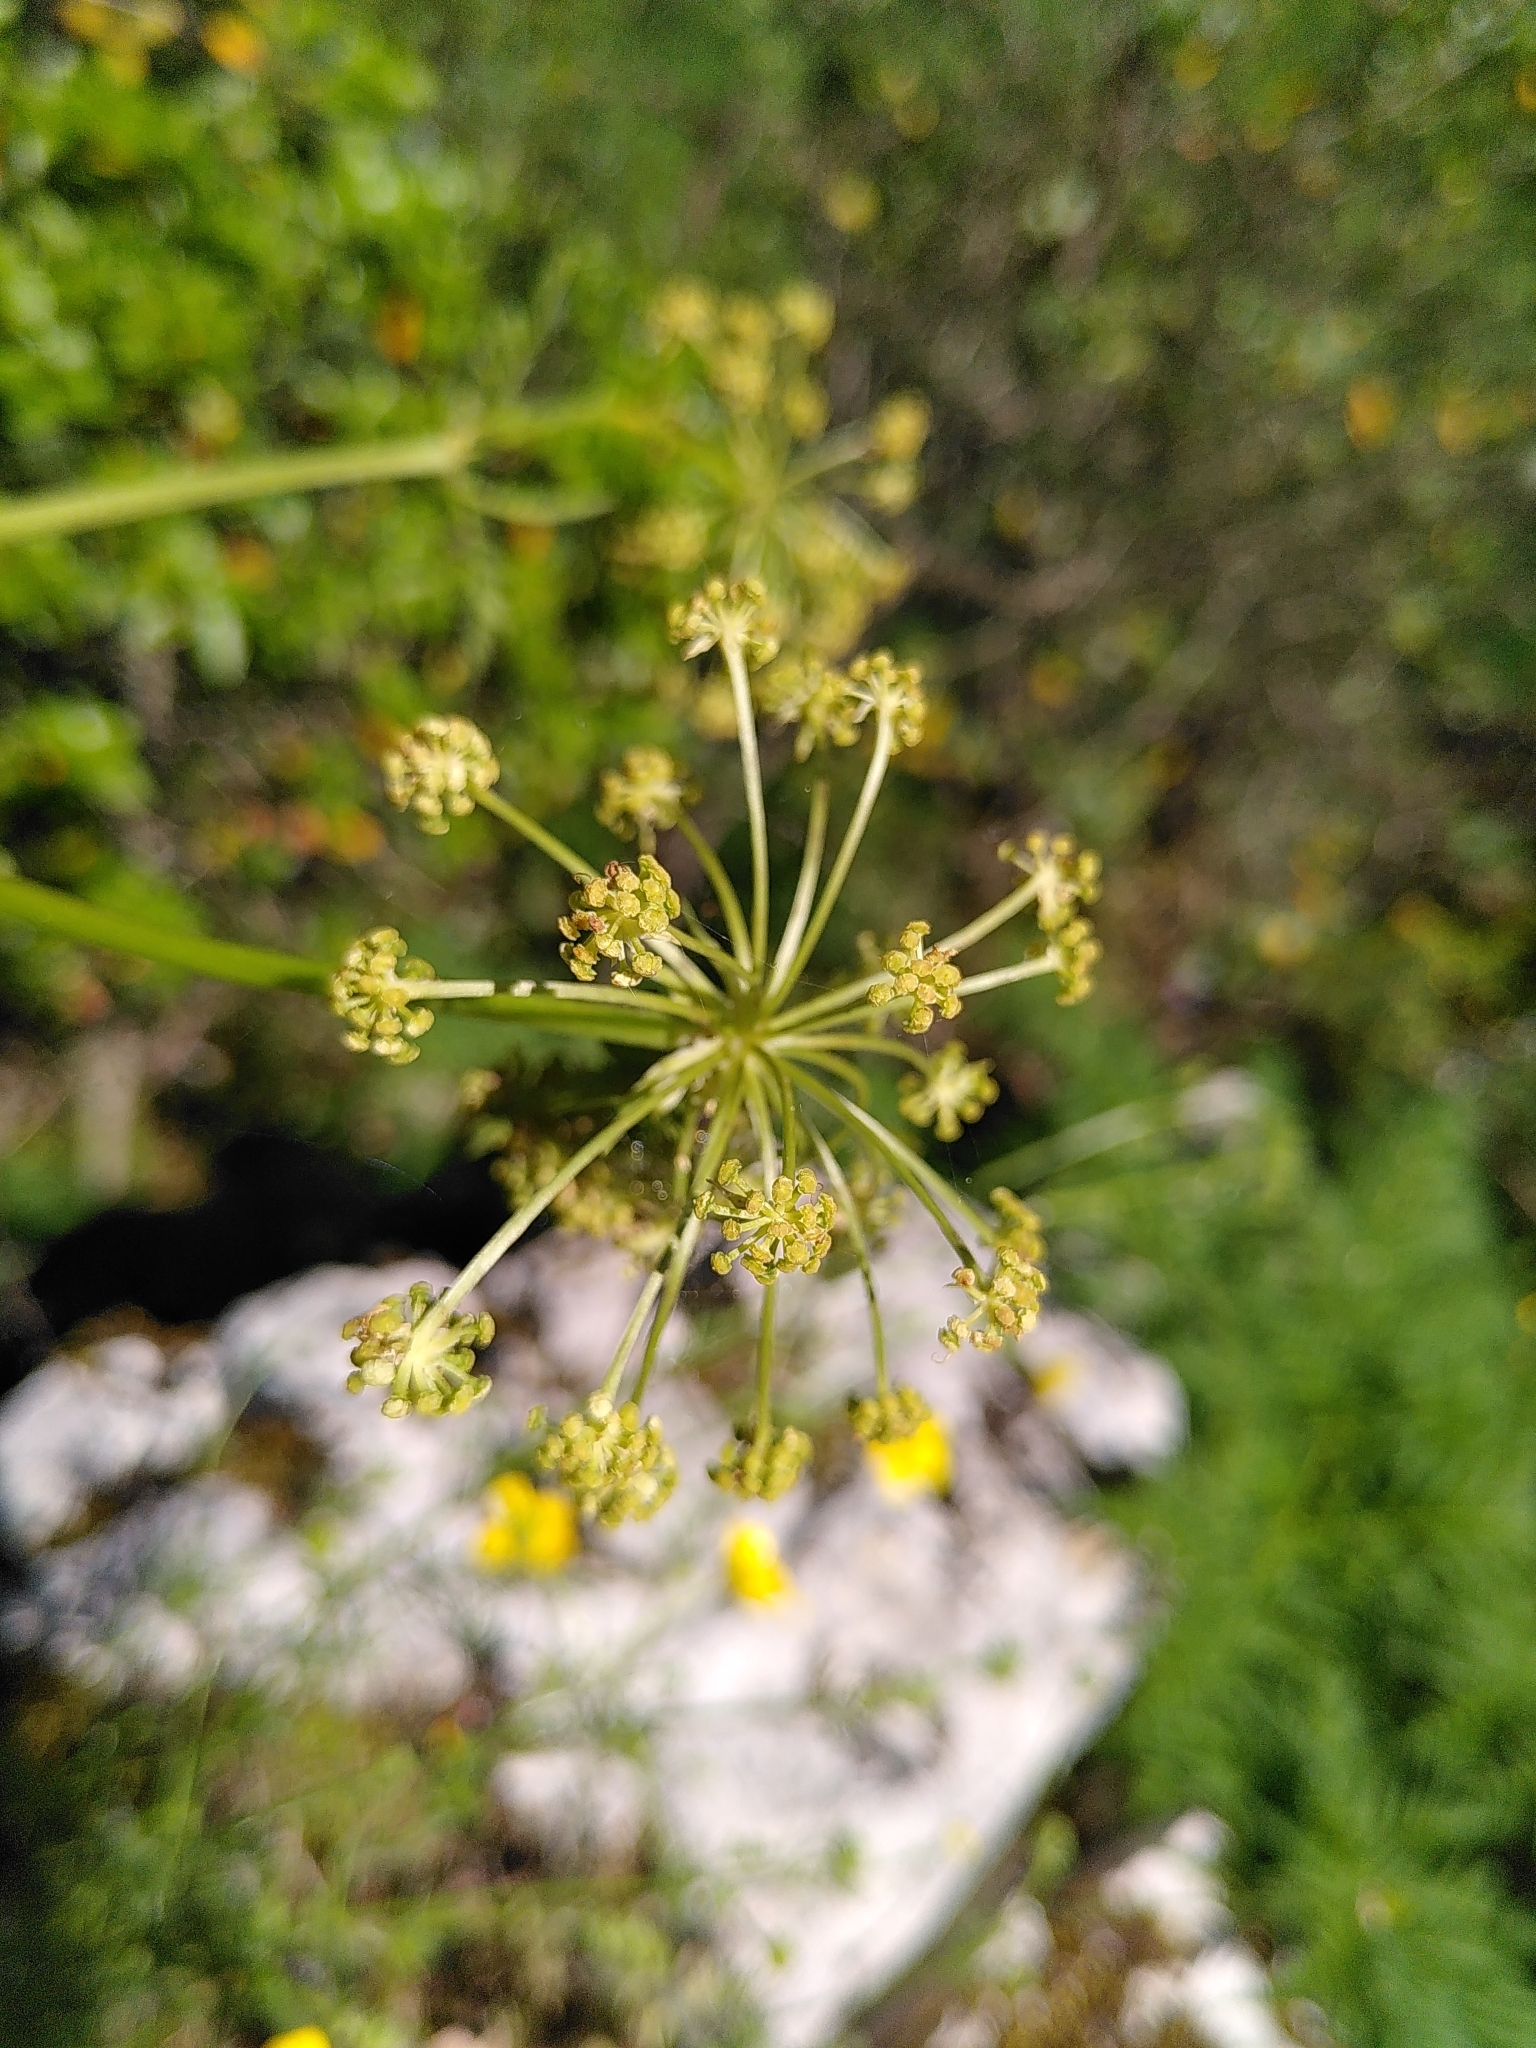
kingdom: Plantae
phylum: Tracheophyta
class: Magnoliopsida
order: Apiales
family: Apiaceae
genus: Molopospermum
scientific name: Molopospermum peloponnesiacum
